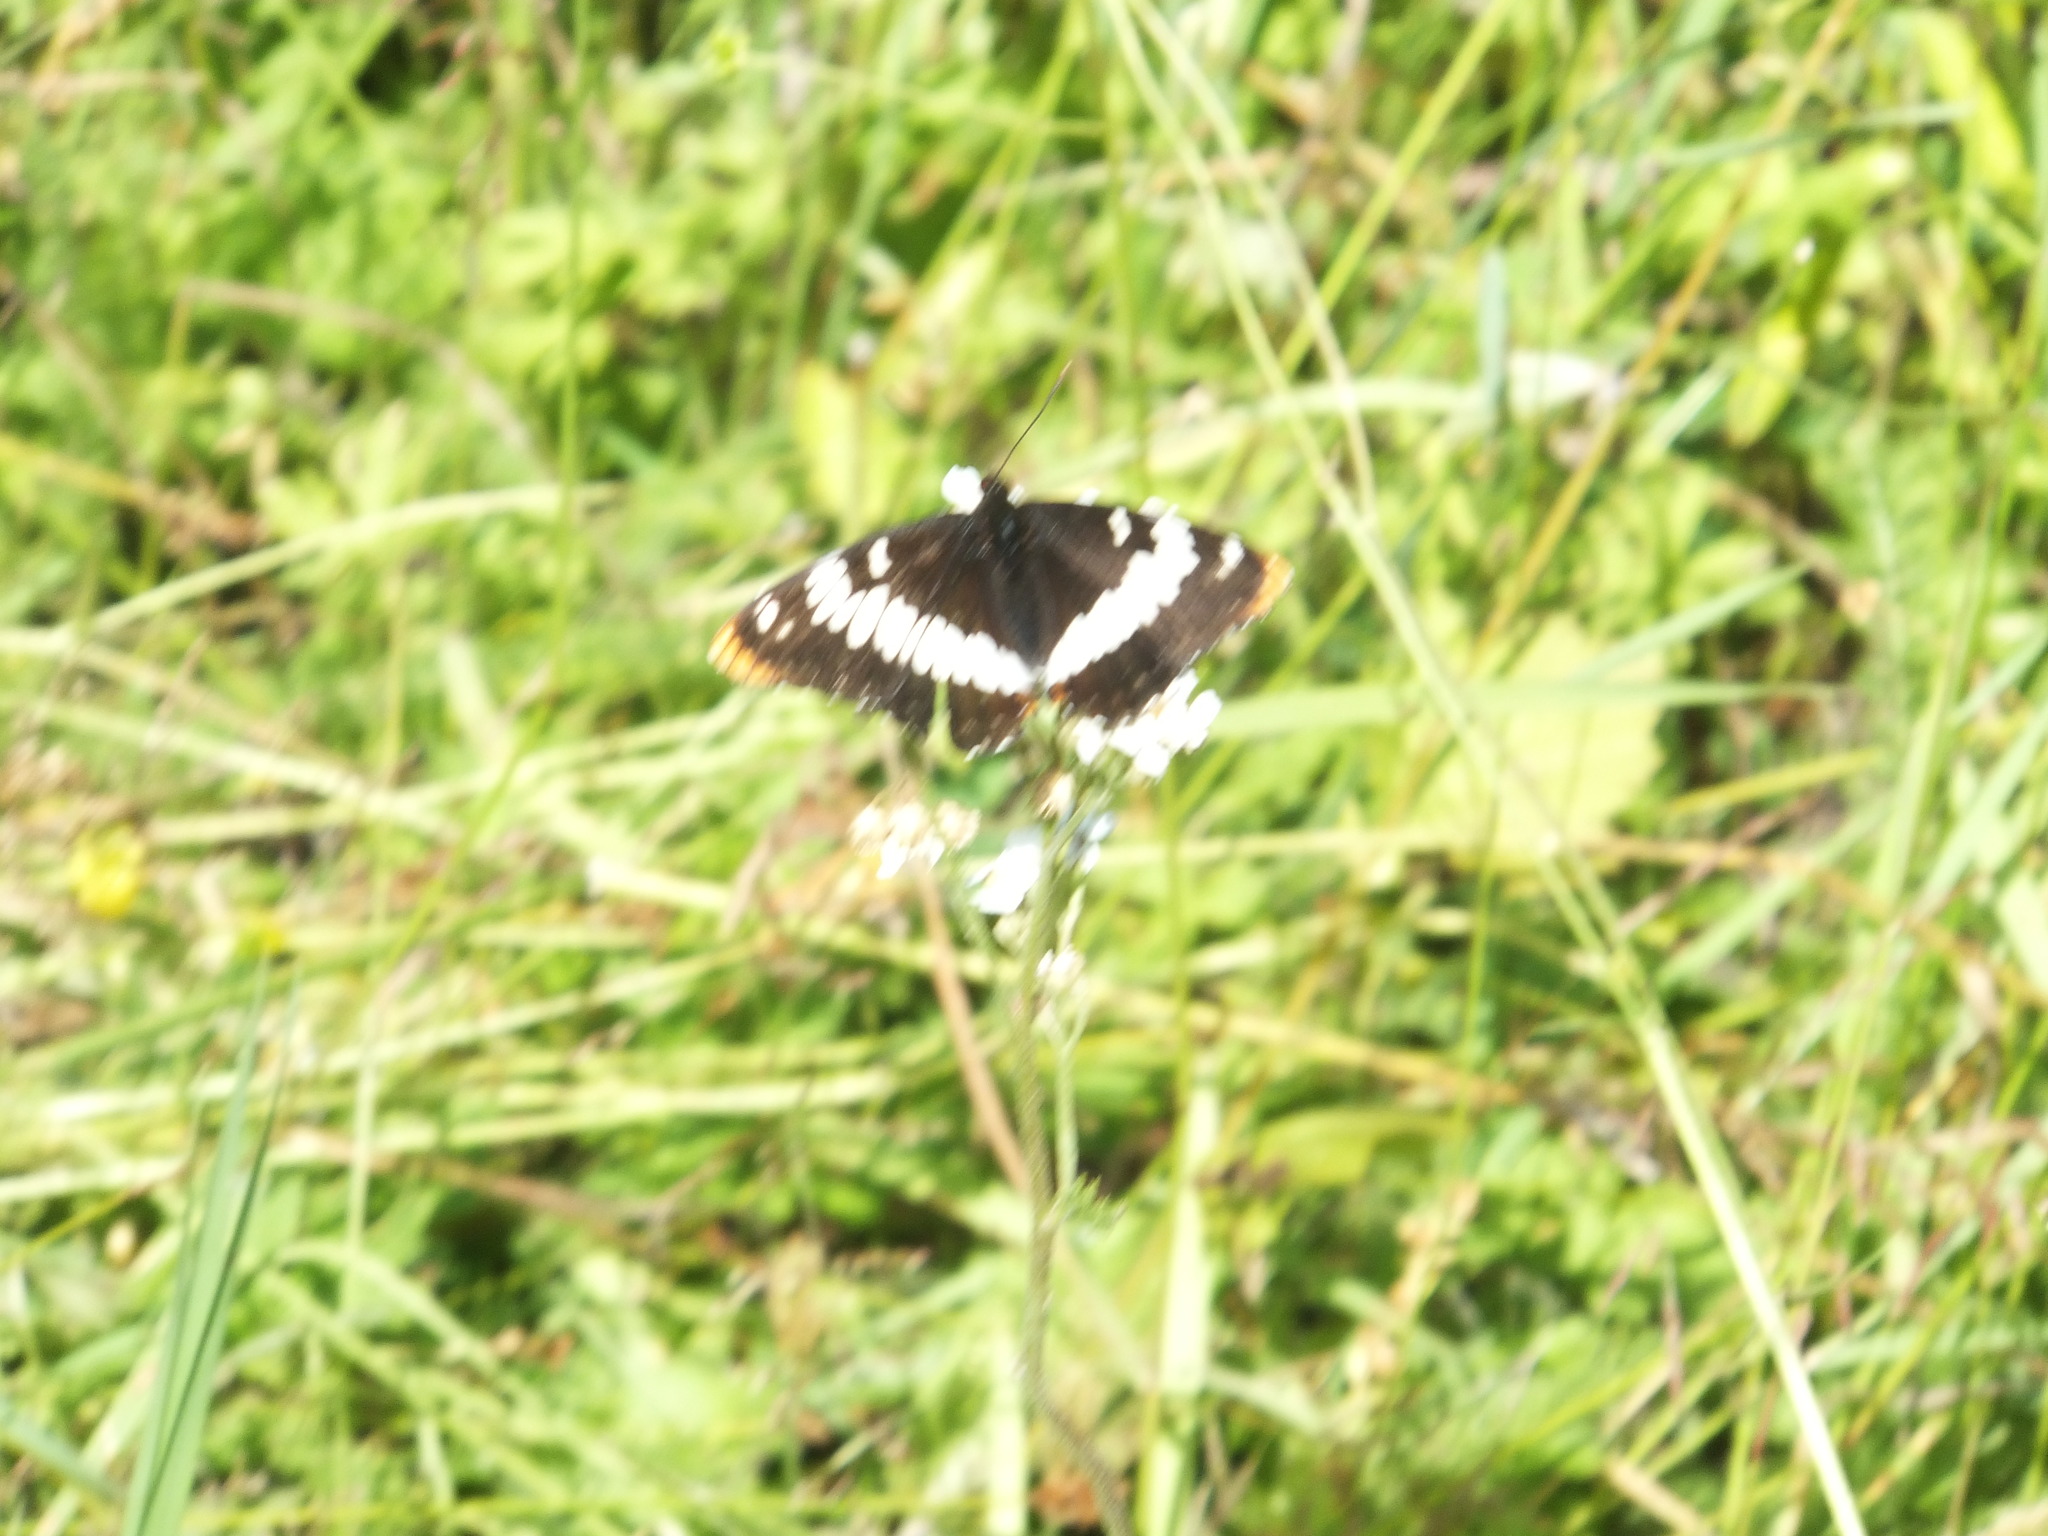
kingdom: Animalia
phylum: Arthropoda
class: Insecta
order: Lepidoptera
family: Nymphalidae
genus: Limenitis
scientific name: Limenitis lorquini
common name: Lorquin's admiral
